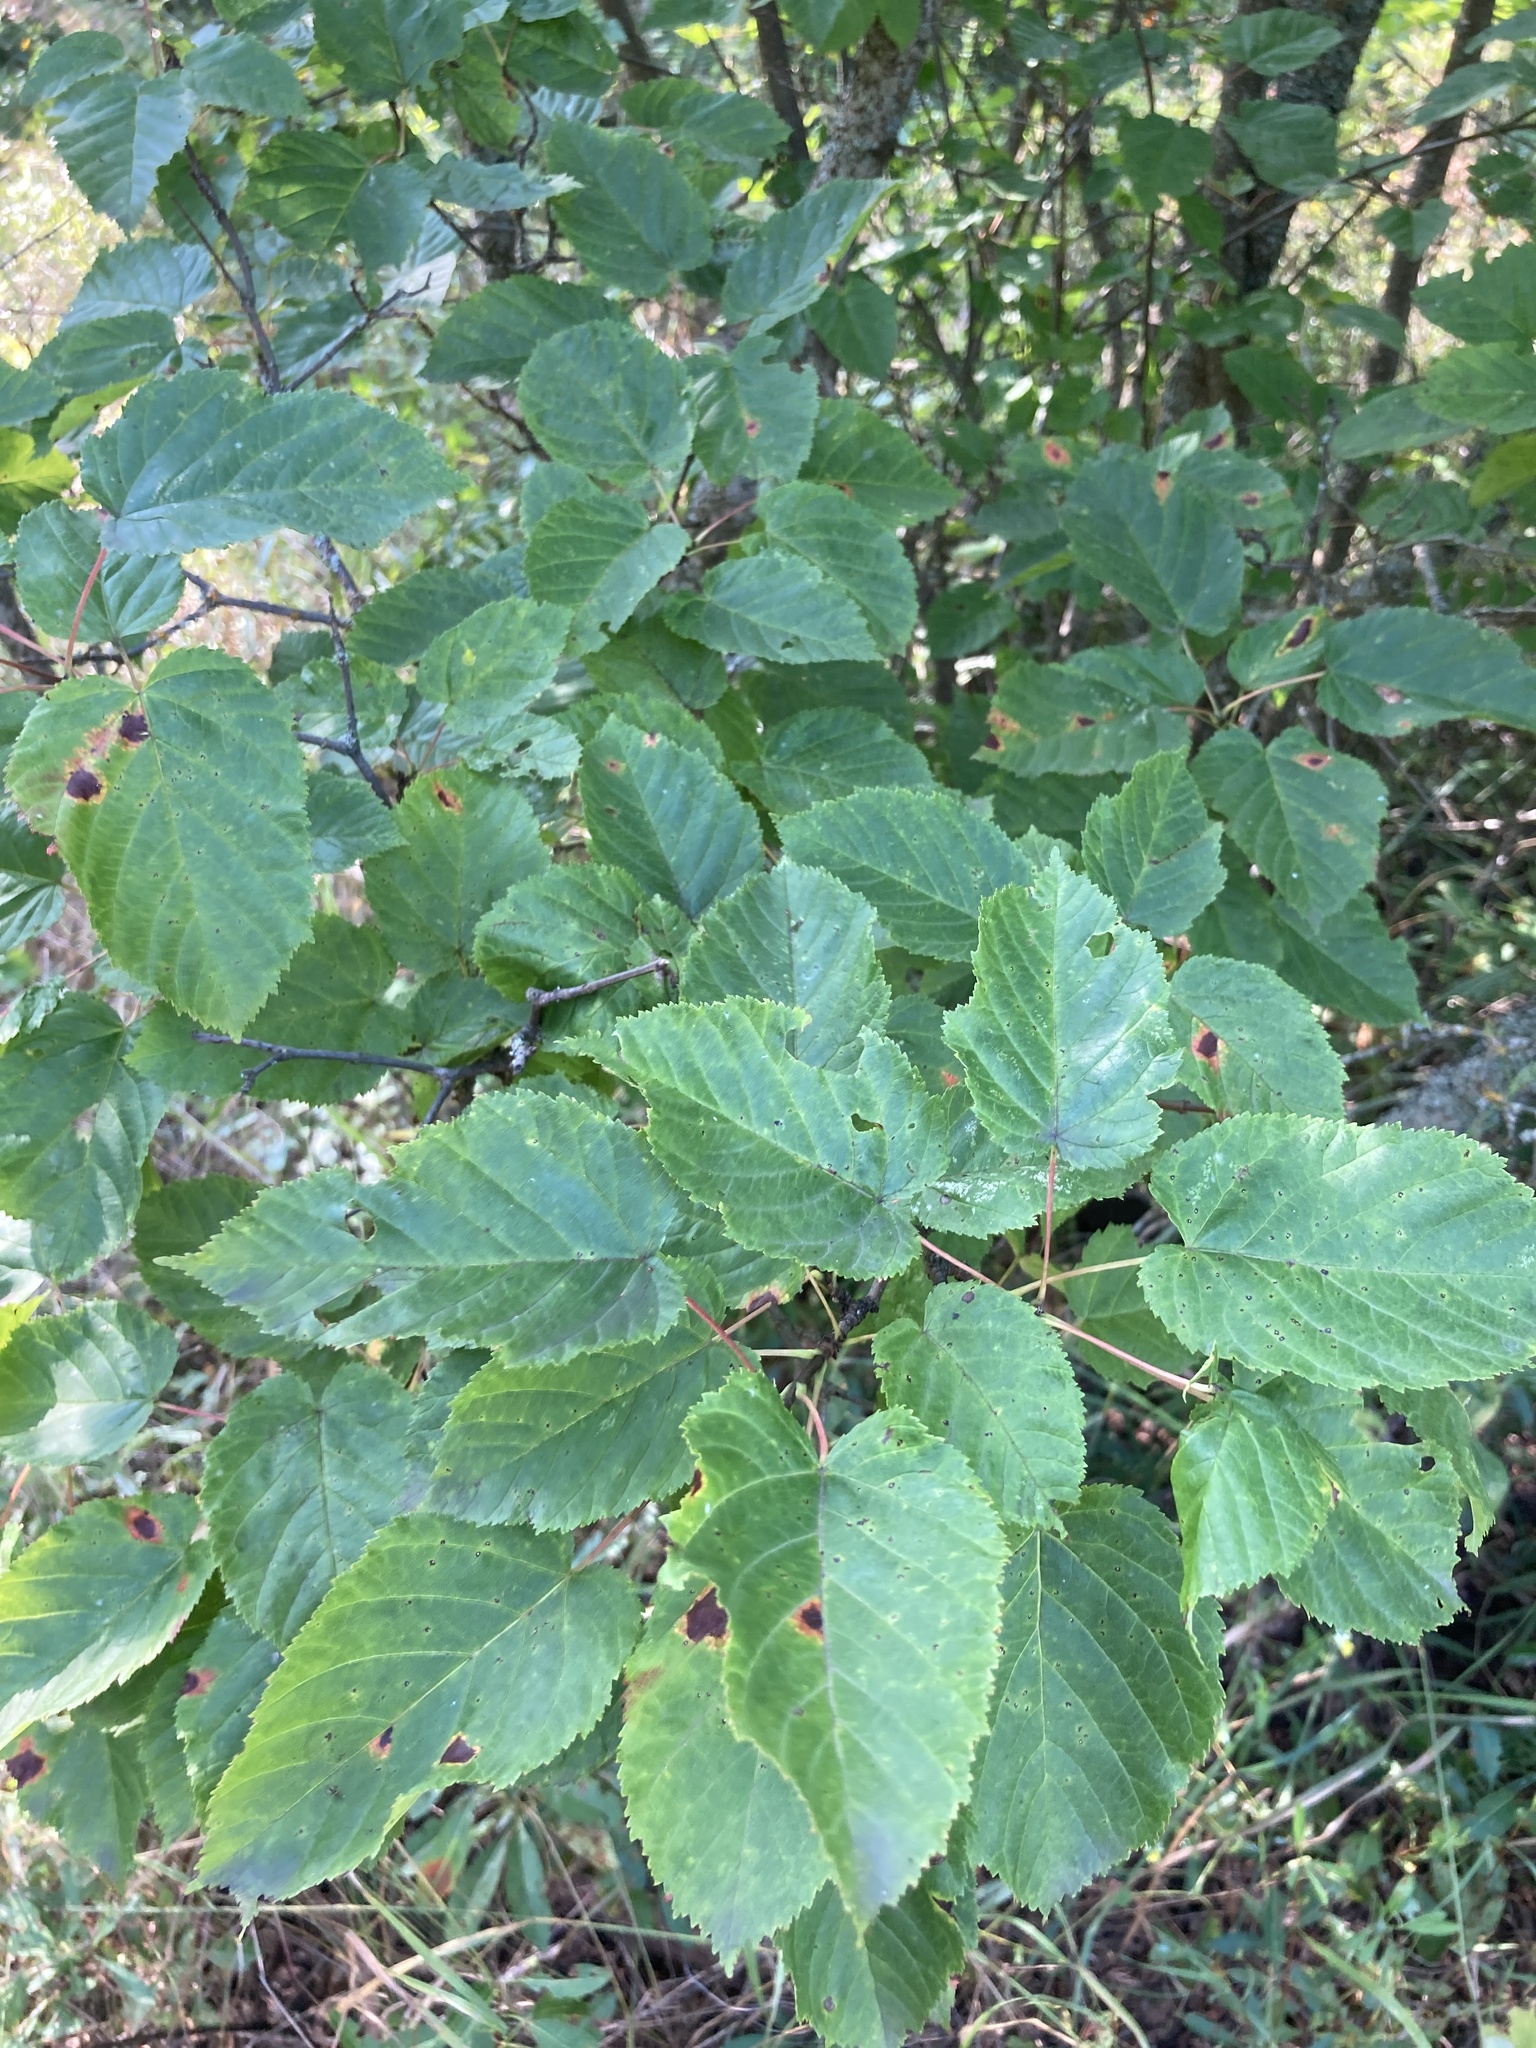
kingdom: Plantae
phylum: Tracheophyta
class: Magnoliopsida
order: Sapindales
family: Sapindaceae
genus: Acer
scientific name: Acer tataricum
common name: Tartar maple
